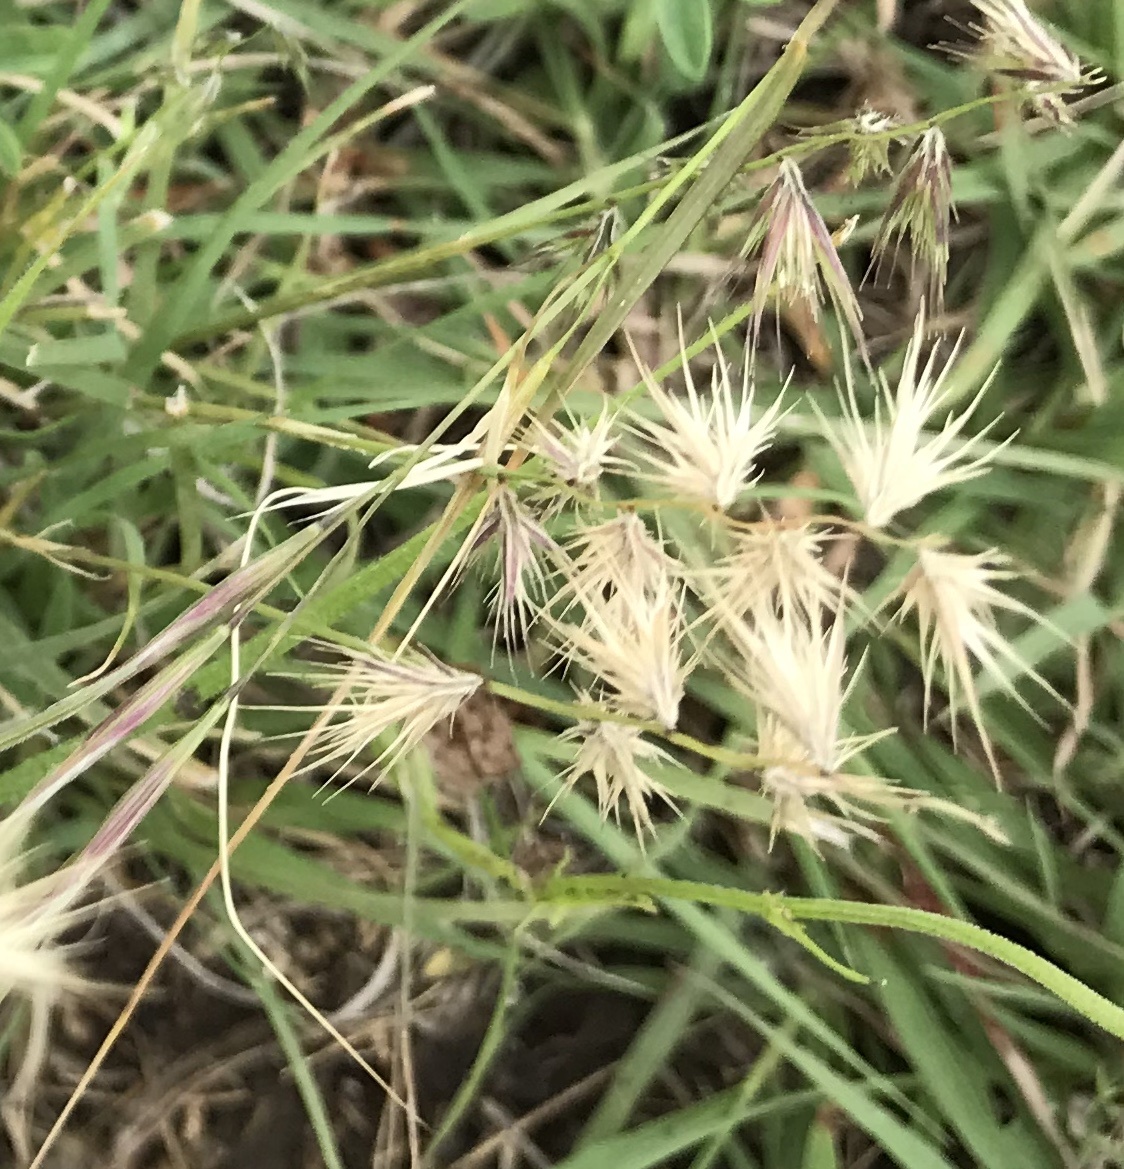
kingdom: Plantae
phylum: Tracheophyta
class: Liliopsida
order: Poales
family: Poaceae
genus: Bouteloua
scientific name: Bouteloua rigidiseta
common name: Texas grama
